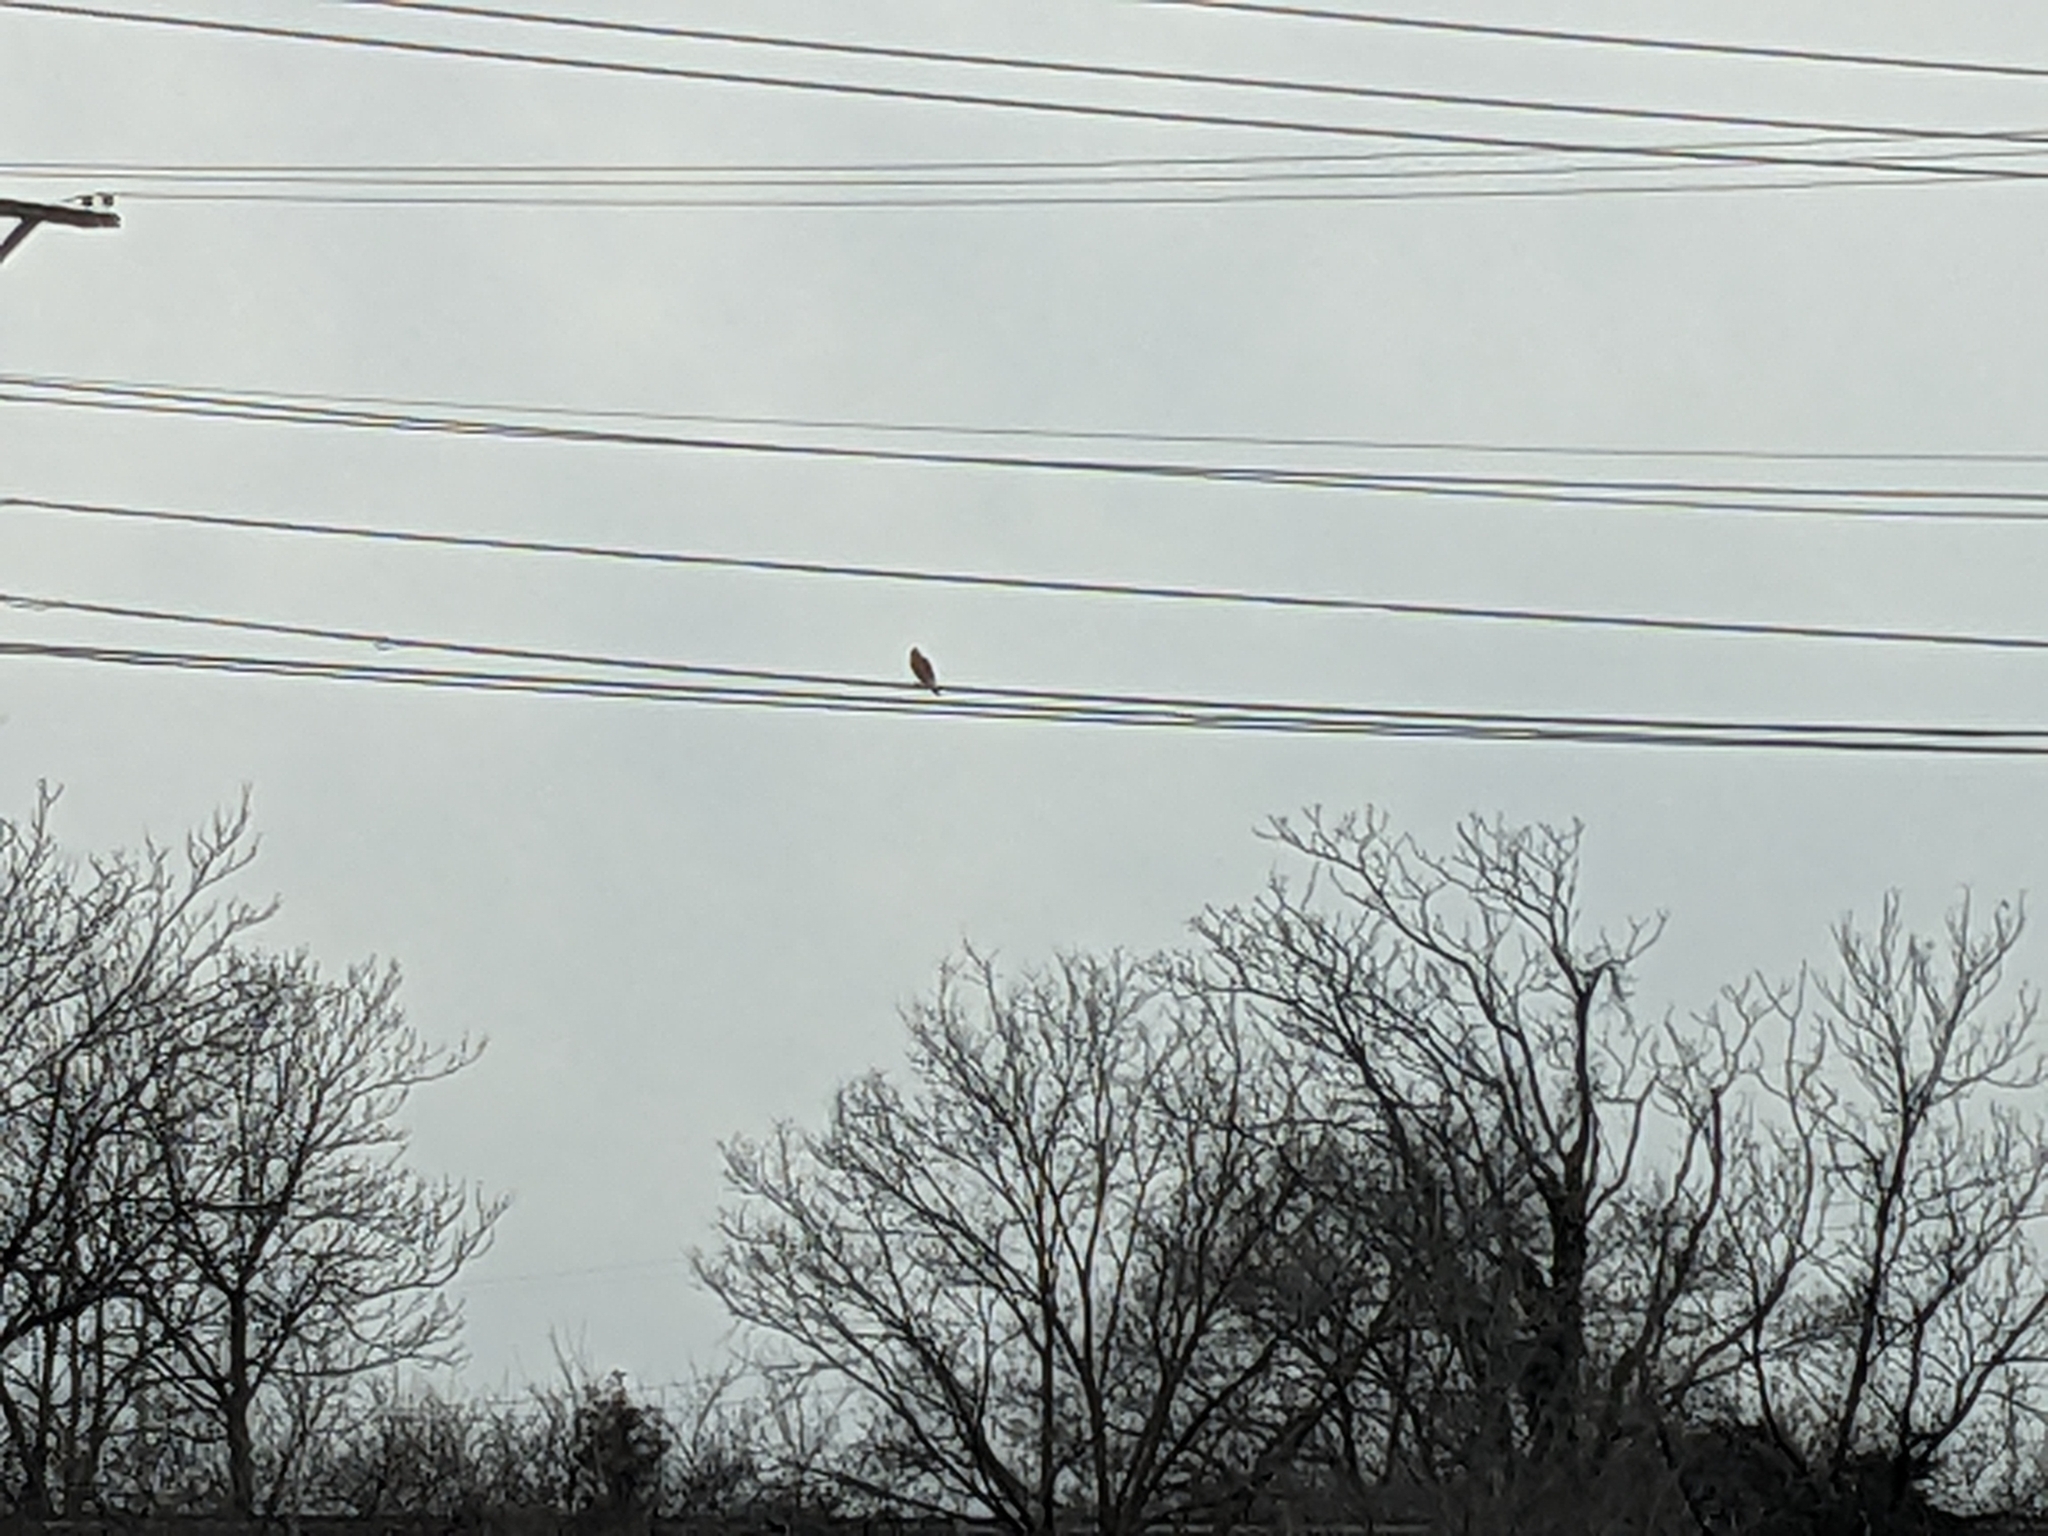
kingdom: Animalia
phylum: Chordata
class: Aves
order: Accipitriformes
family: Accipitridae
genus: Buteo
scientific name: Buteo lineatus
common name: Red-shouldered hawk
